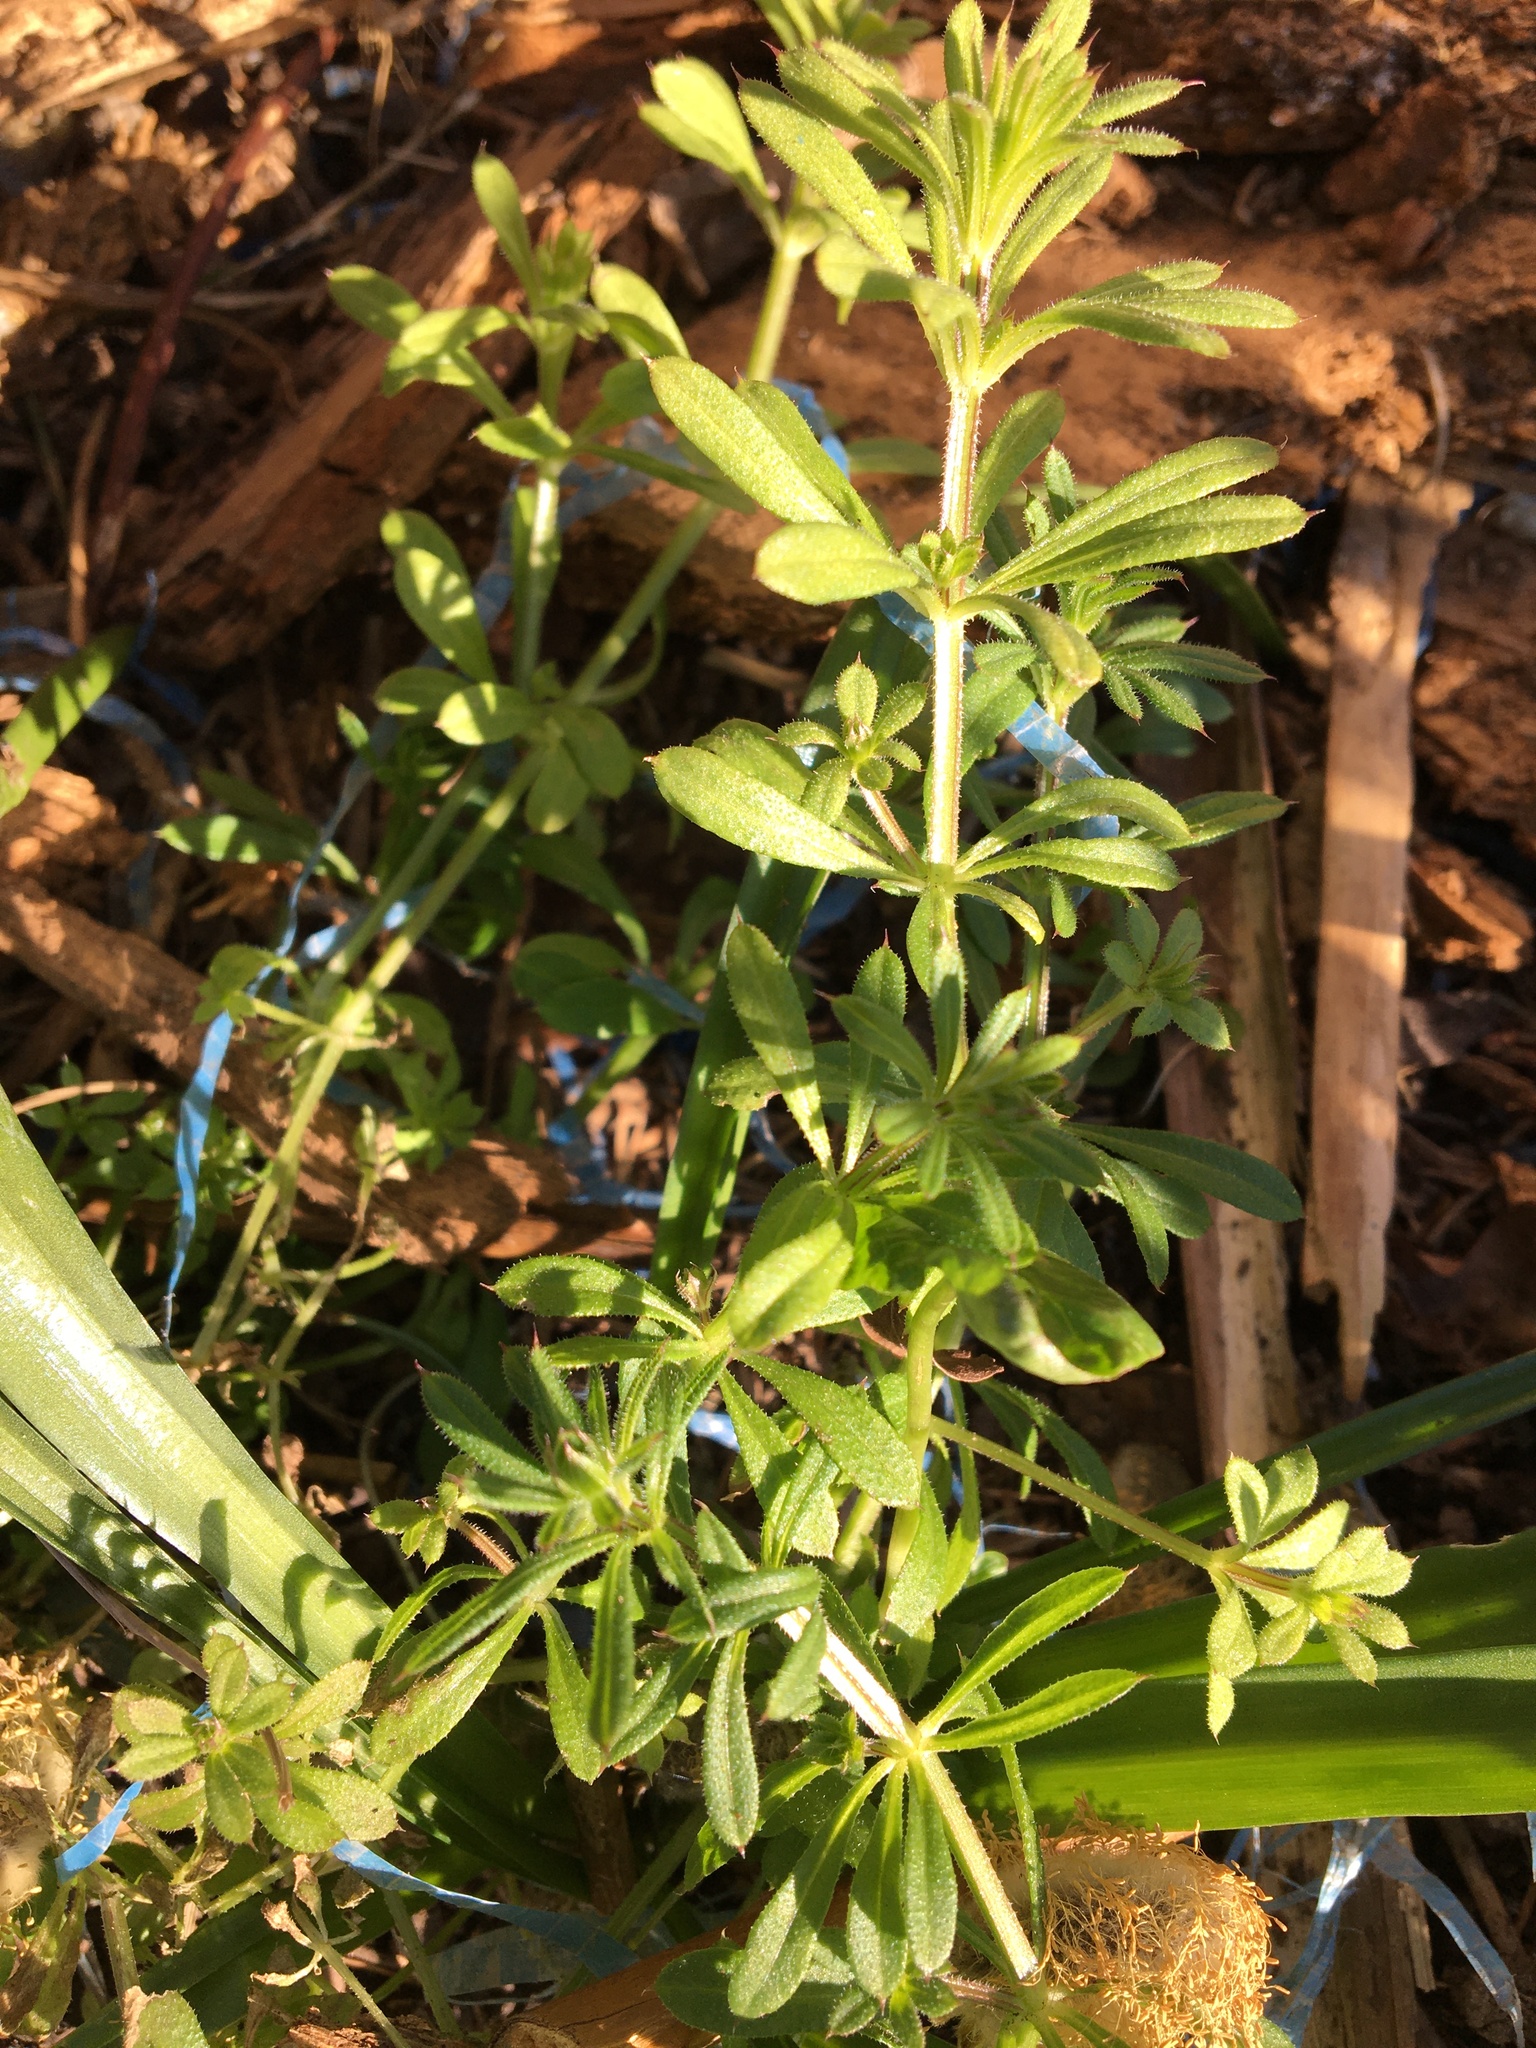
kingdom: Plantae
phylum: Tracheophyta
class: Magnoliopsida
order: Gentianales
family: Rubiaceae
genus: Galium
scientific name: Galium aparine
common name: Cleavers
